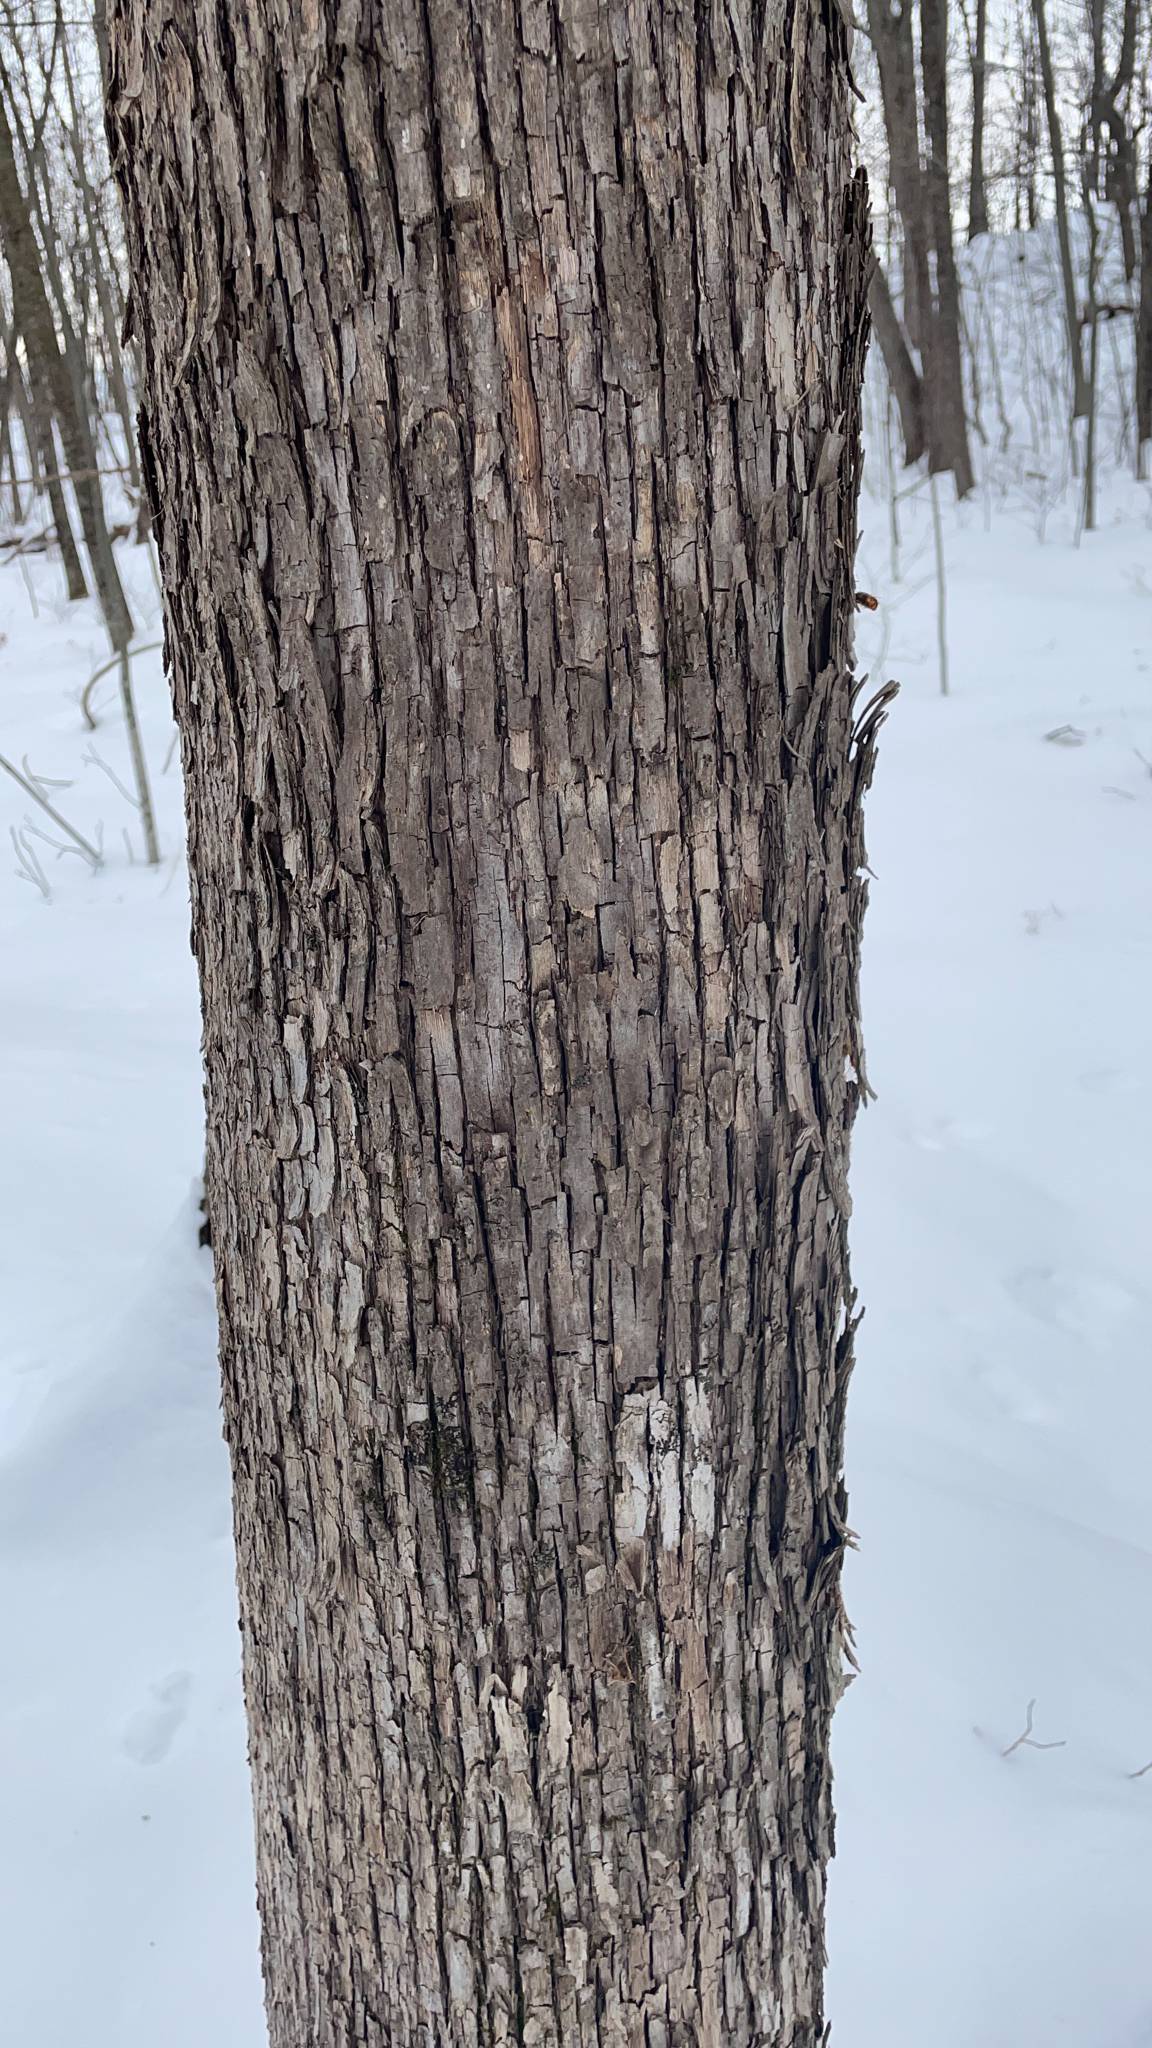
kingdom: Plantae
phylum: Tracheophyta
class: Magnoliopsida
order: Fagales
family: Betulaceae
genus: Ostrya
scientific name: Ostrya virginiana
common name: Ironwood
